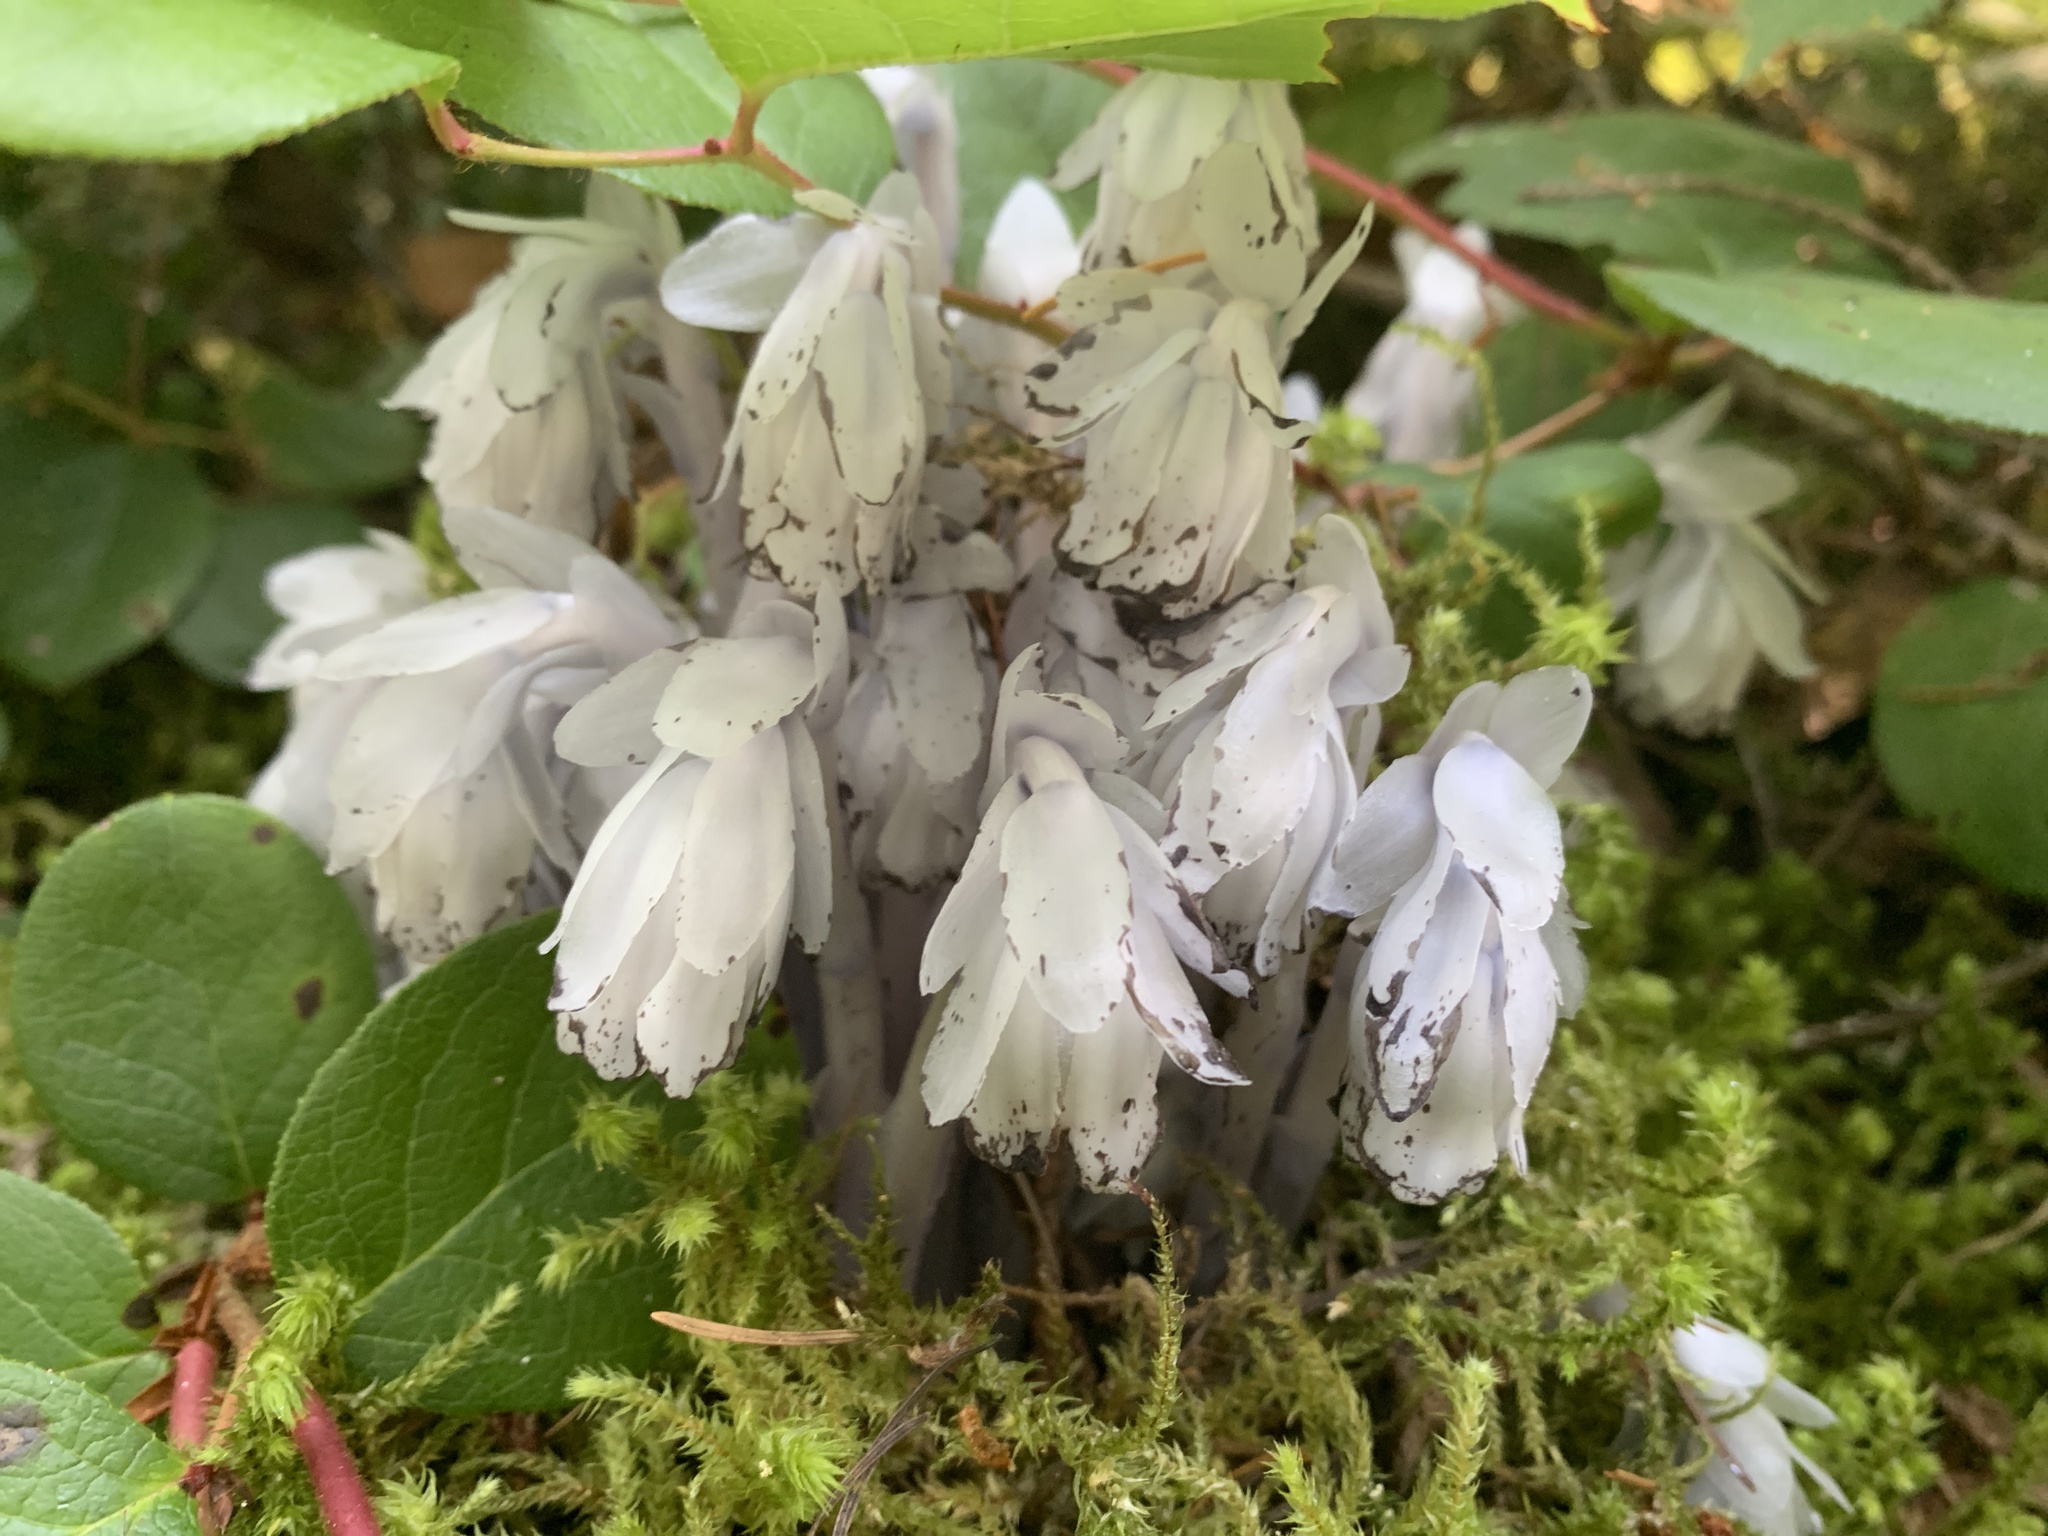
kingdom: Plantae
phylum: Tracheophyta
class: Magnoliopsida
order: Ericales
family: Ericaceae
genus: Monotropa
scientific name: Monotropa uniflora
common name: Convulsion root
